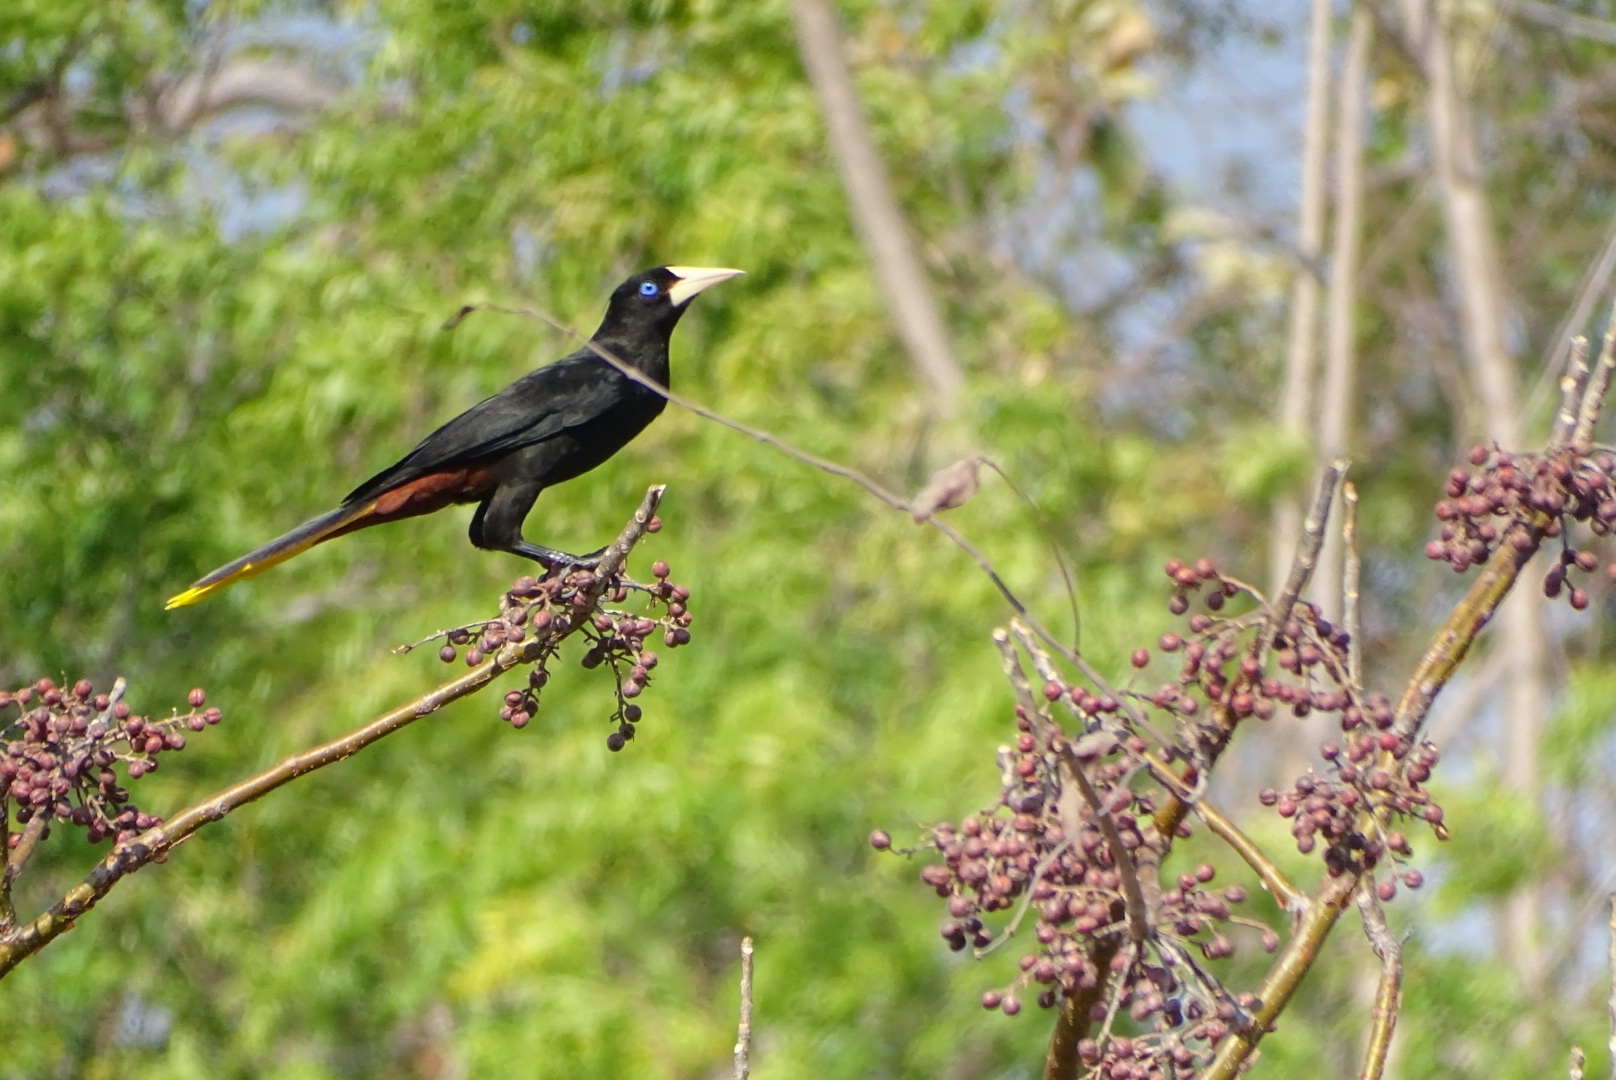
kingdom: Animalia
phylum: Chordata
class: Aves
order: Passeriformes
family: Icteridae
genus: Psarocolius
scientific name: Psarocolius decumanus
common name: Crested oropendola
